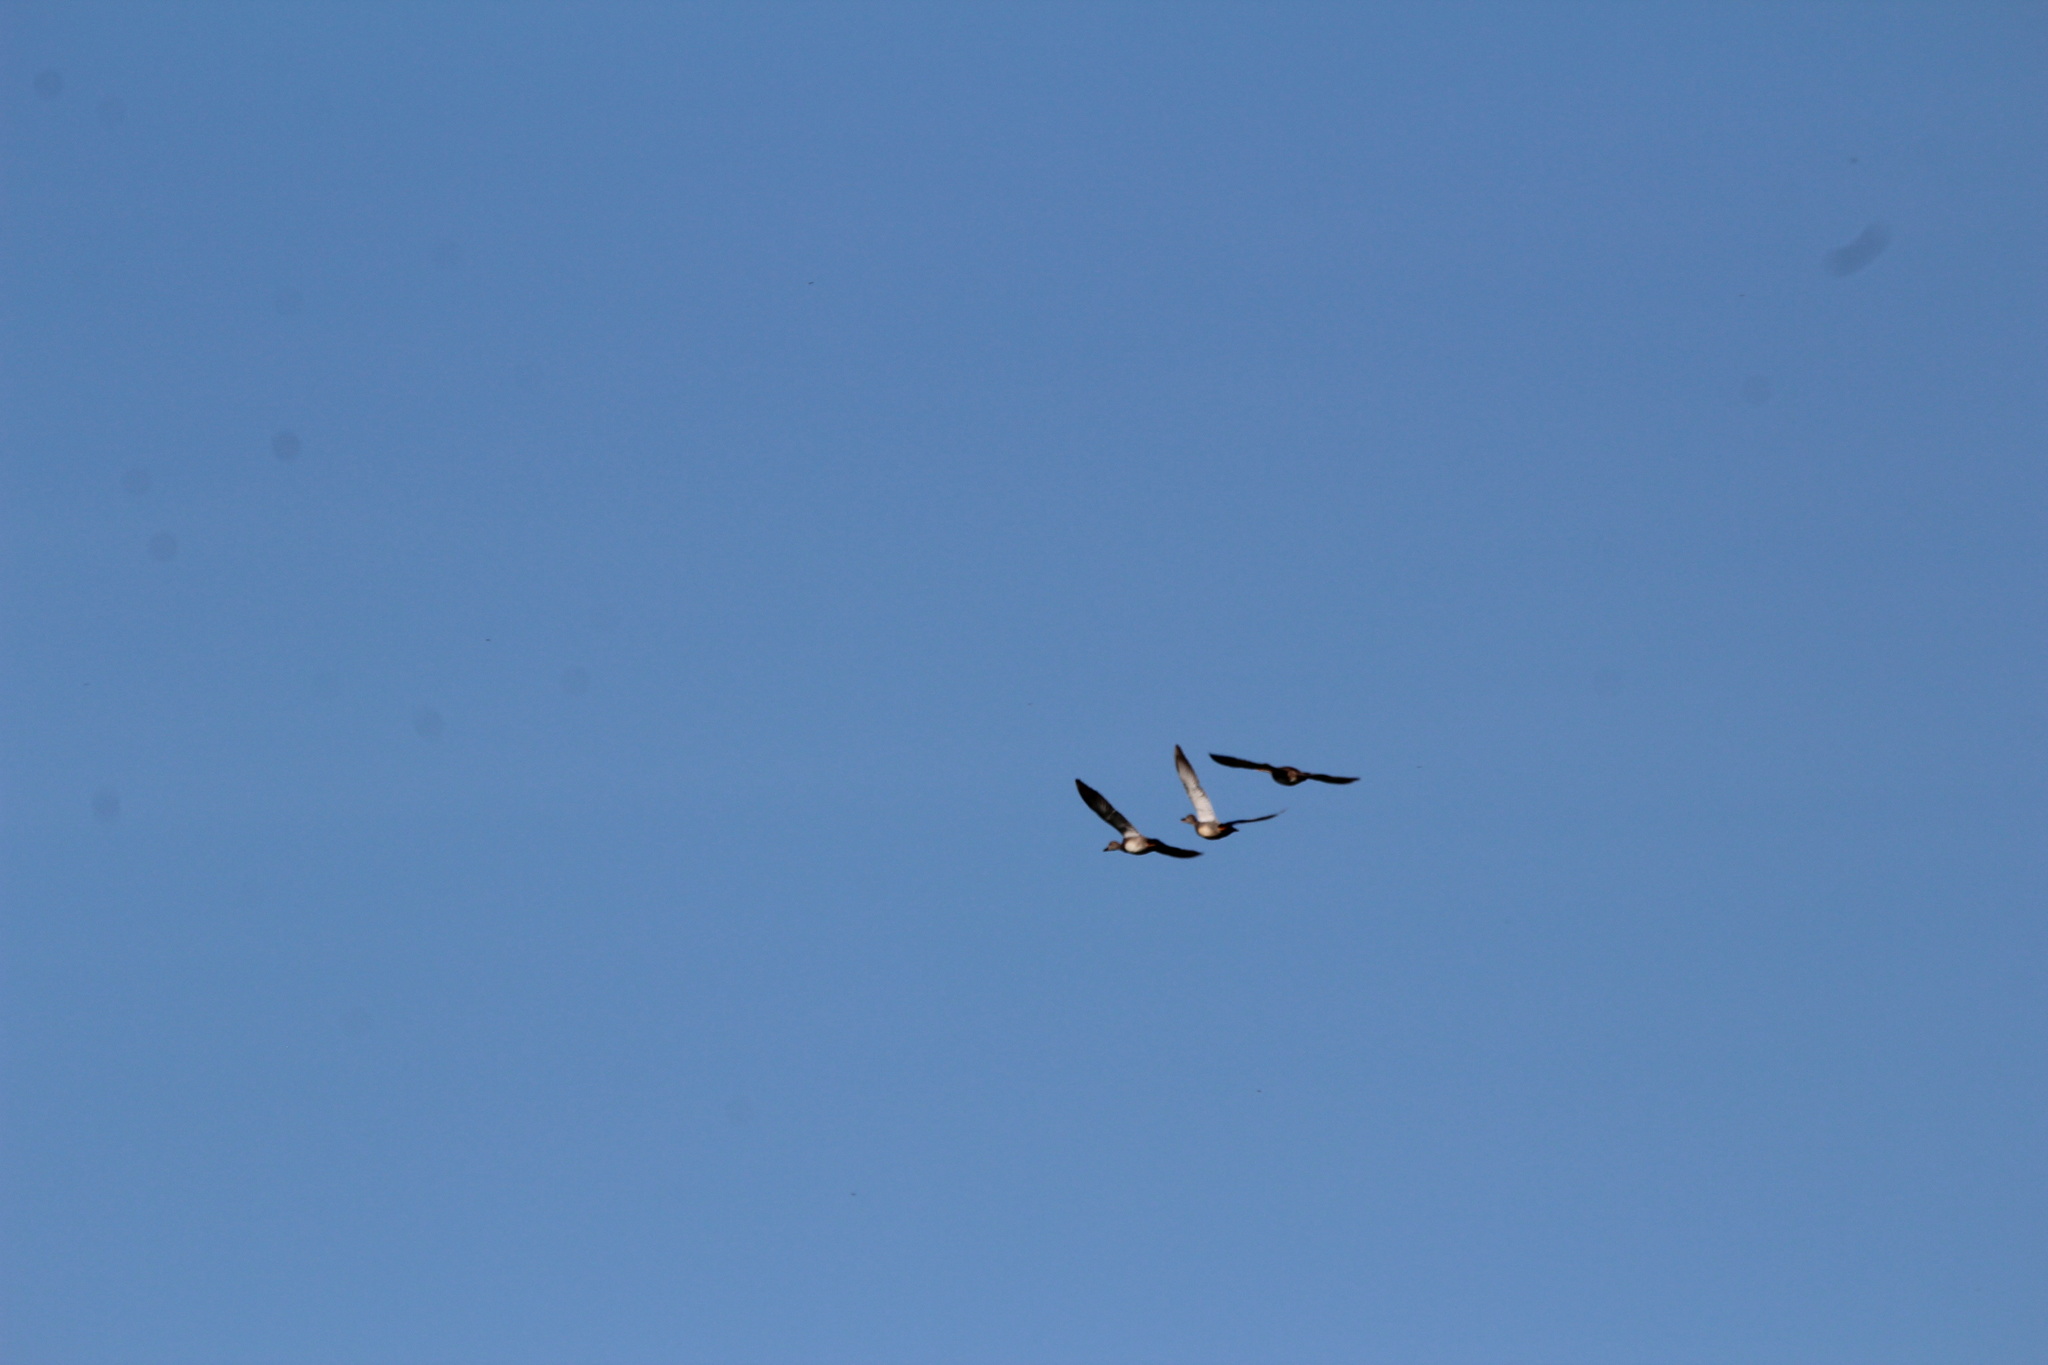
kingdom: Animalia
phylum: Chordata
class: Aves
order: Anseriformes
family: Anatidae
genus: Mareca
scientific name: Mareca strepera
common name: Gadwall
